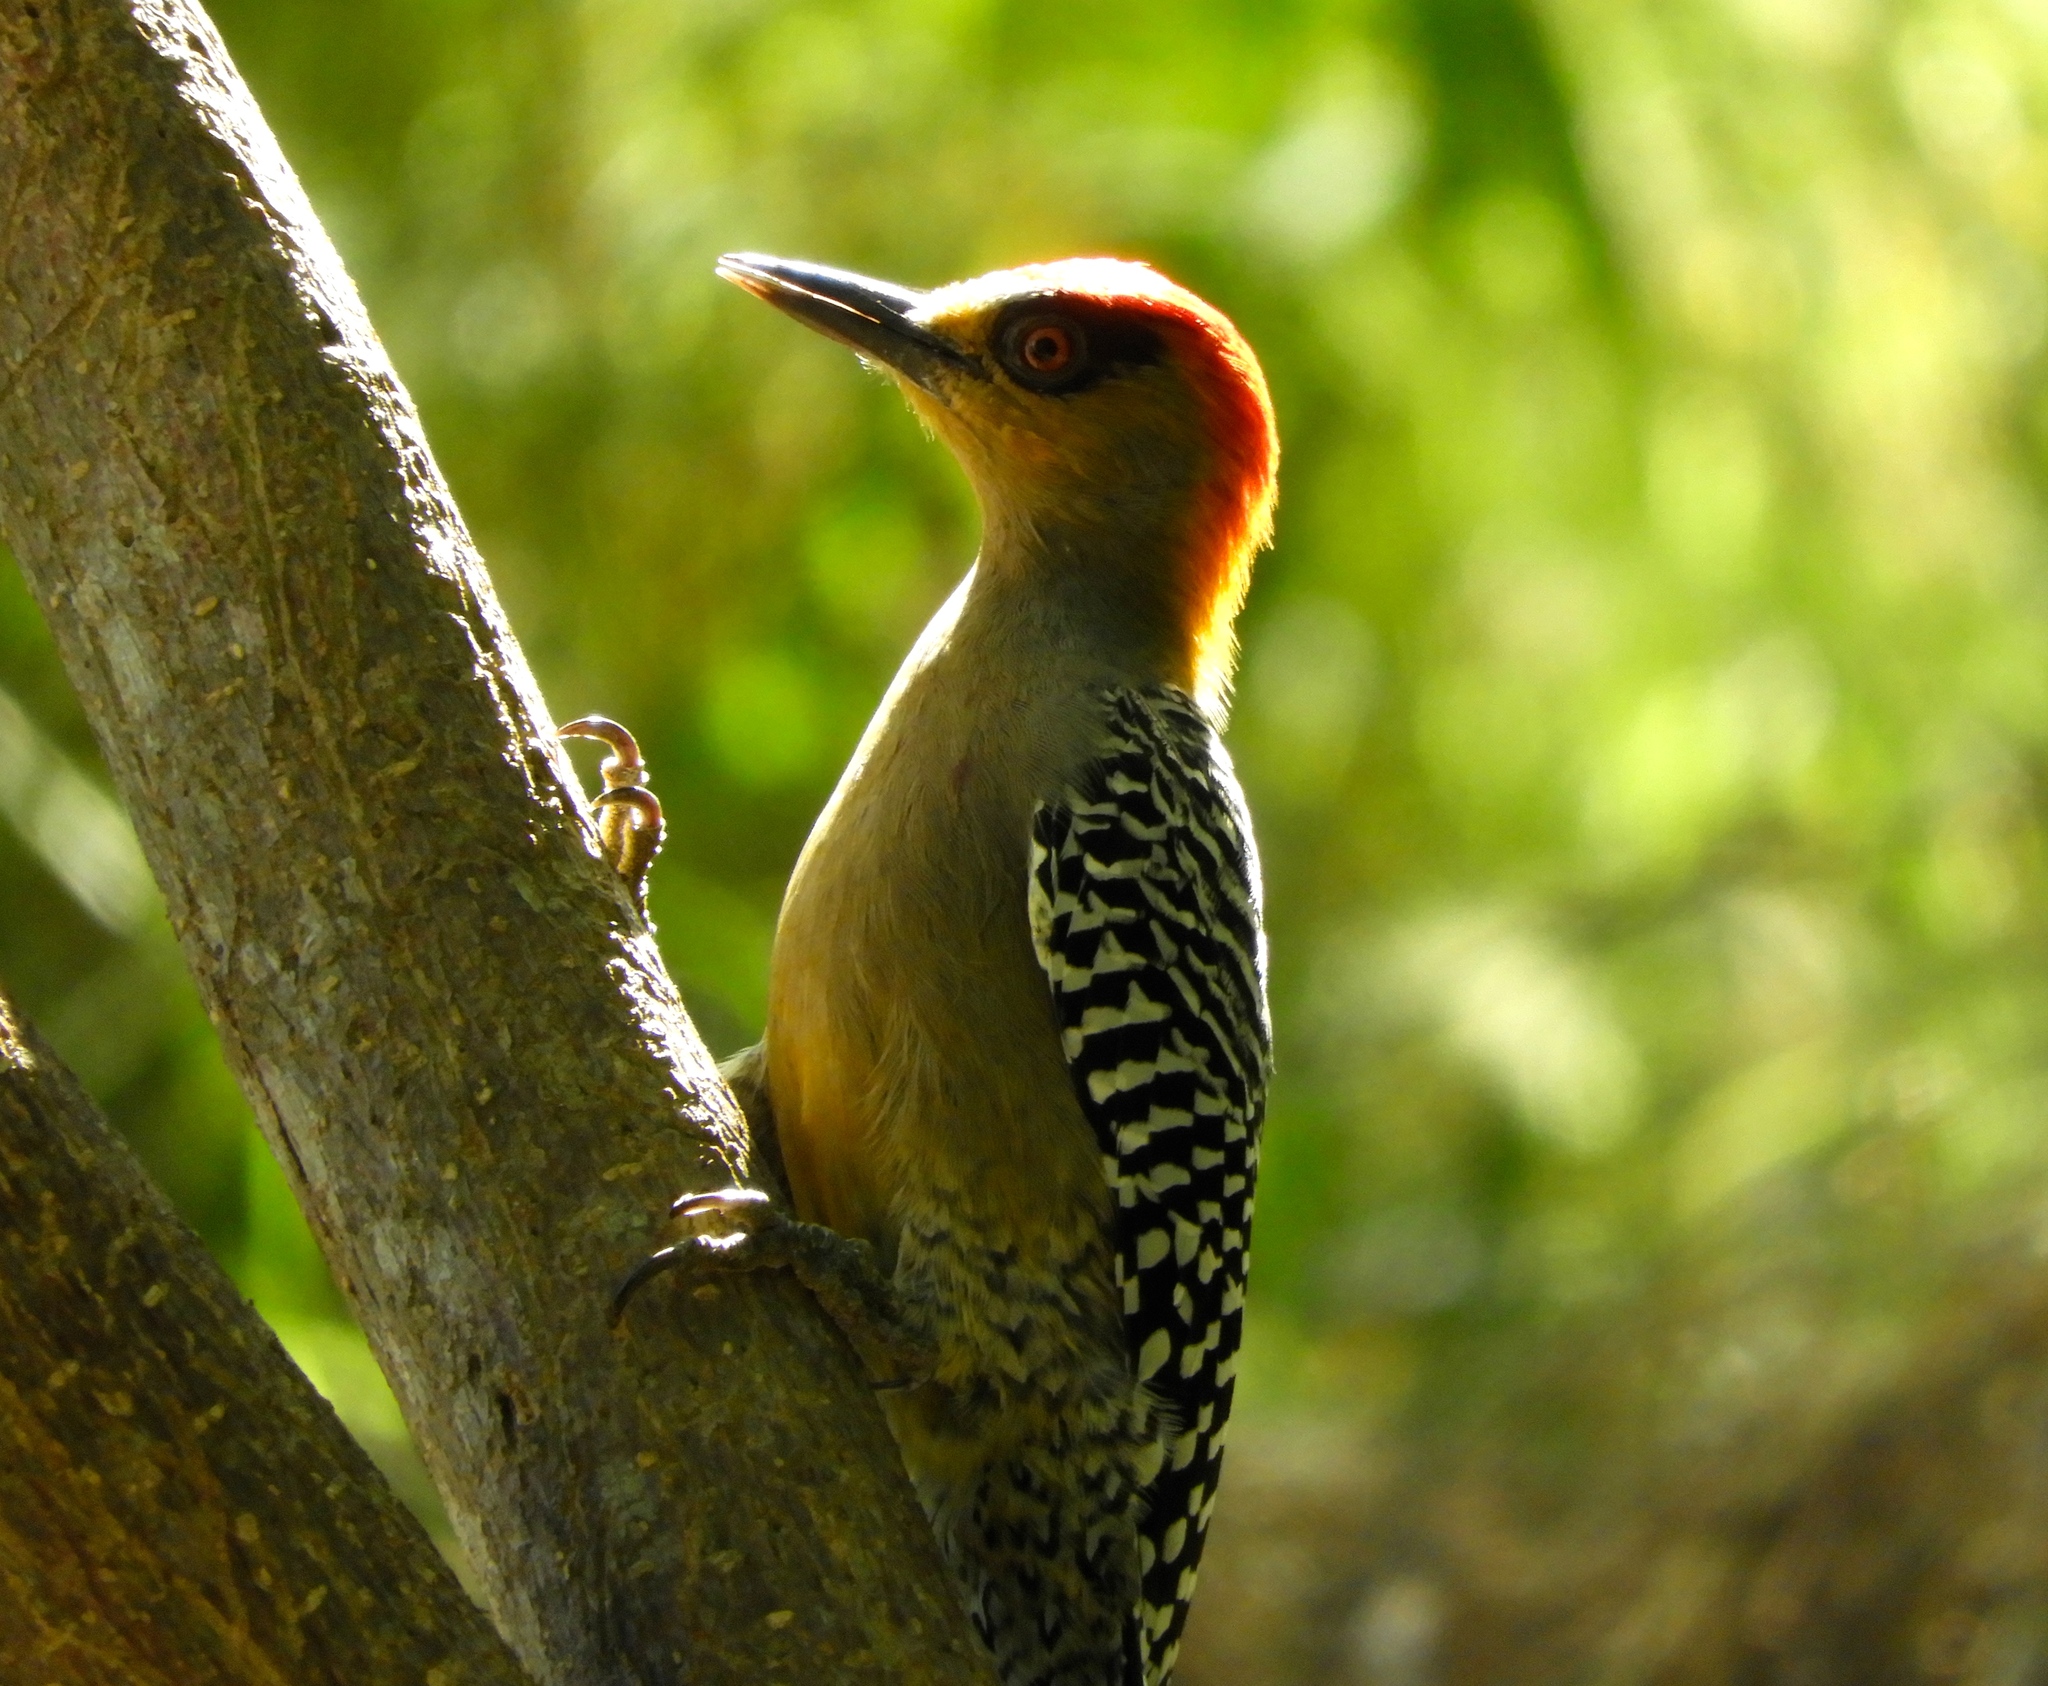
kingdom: Animalia
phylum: Chordata
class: Aves
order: Piciformes
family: Picidae
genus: Melanerpes
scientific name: Melanerpes chrysogenys
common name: Golden-cheeked woodpecker
